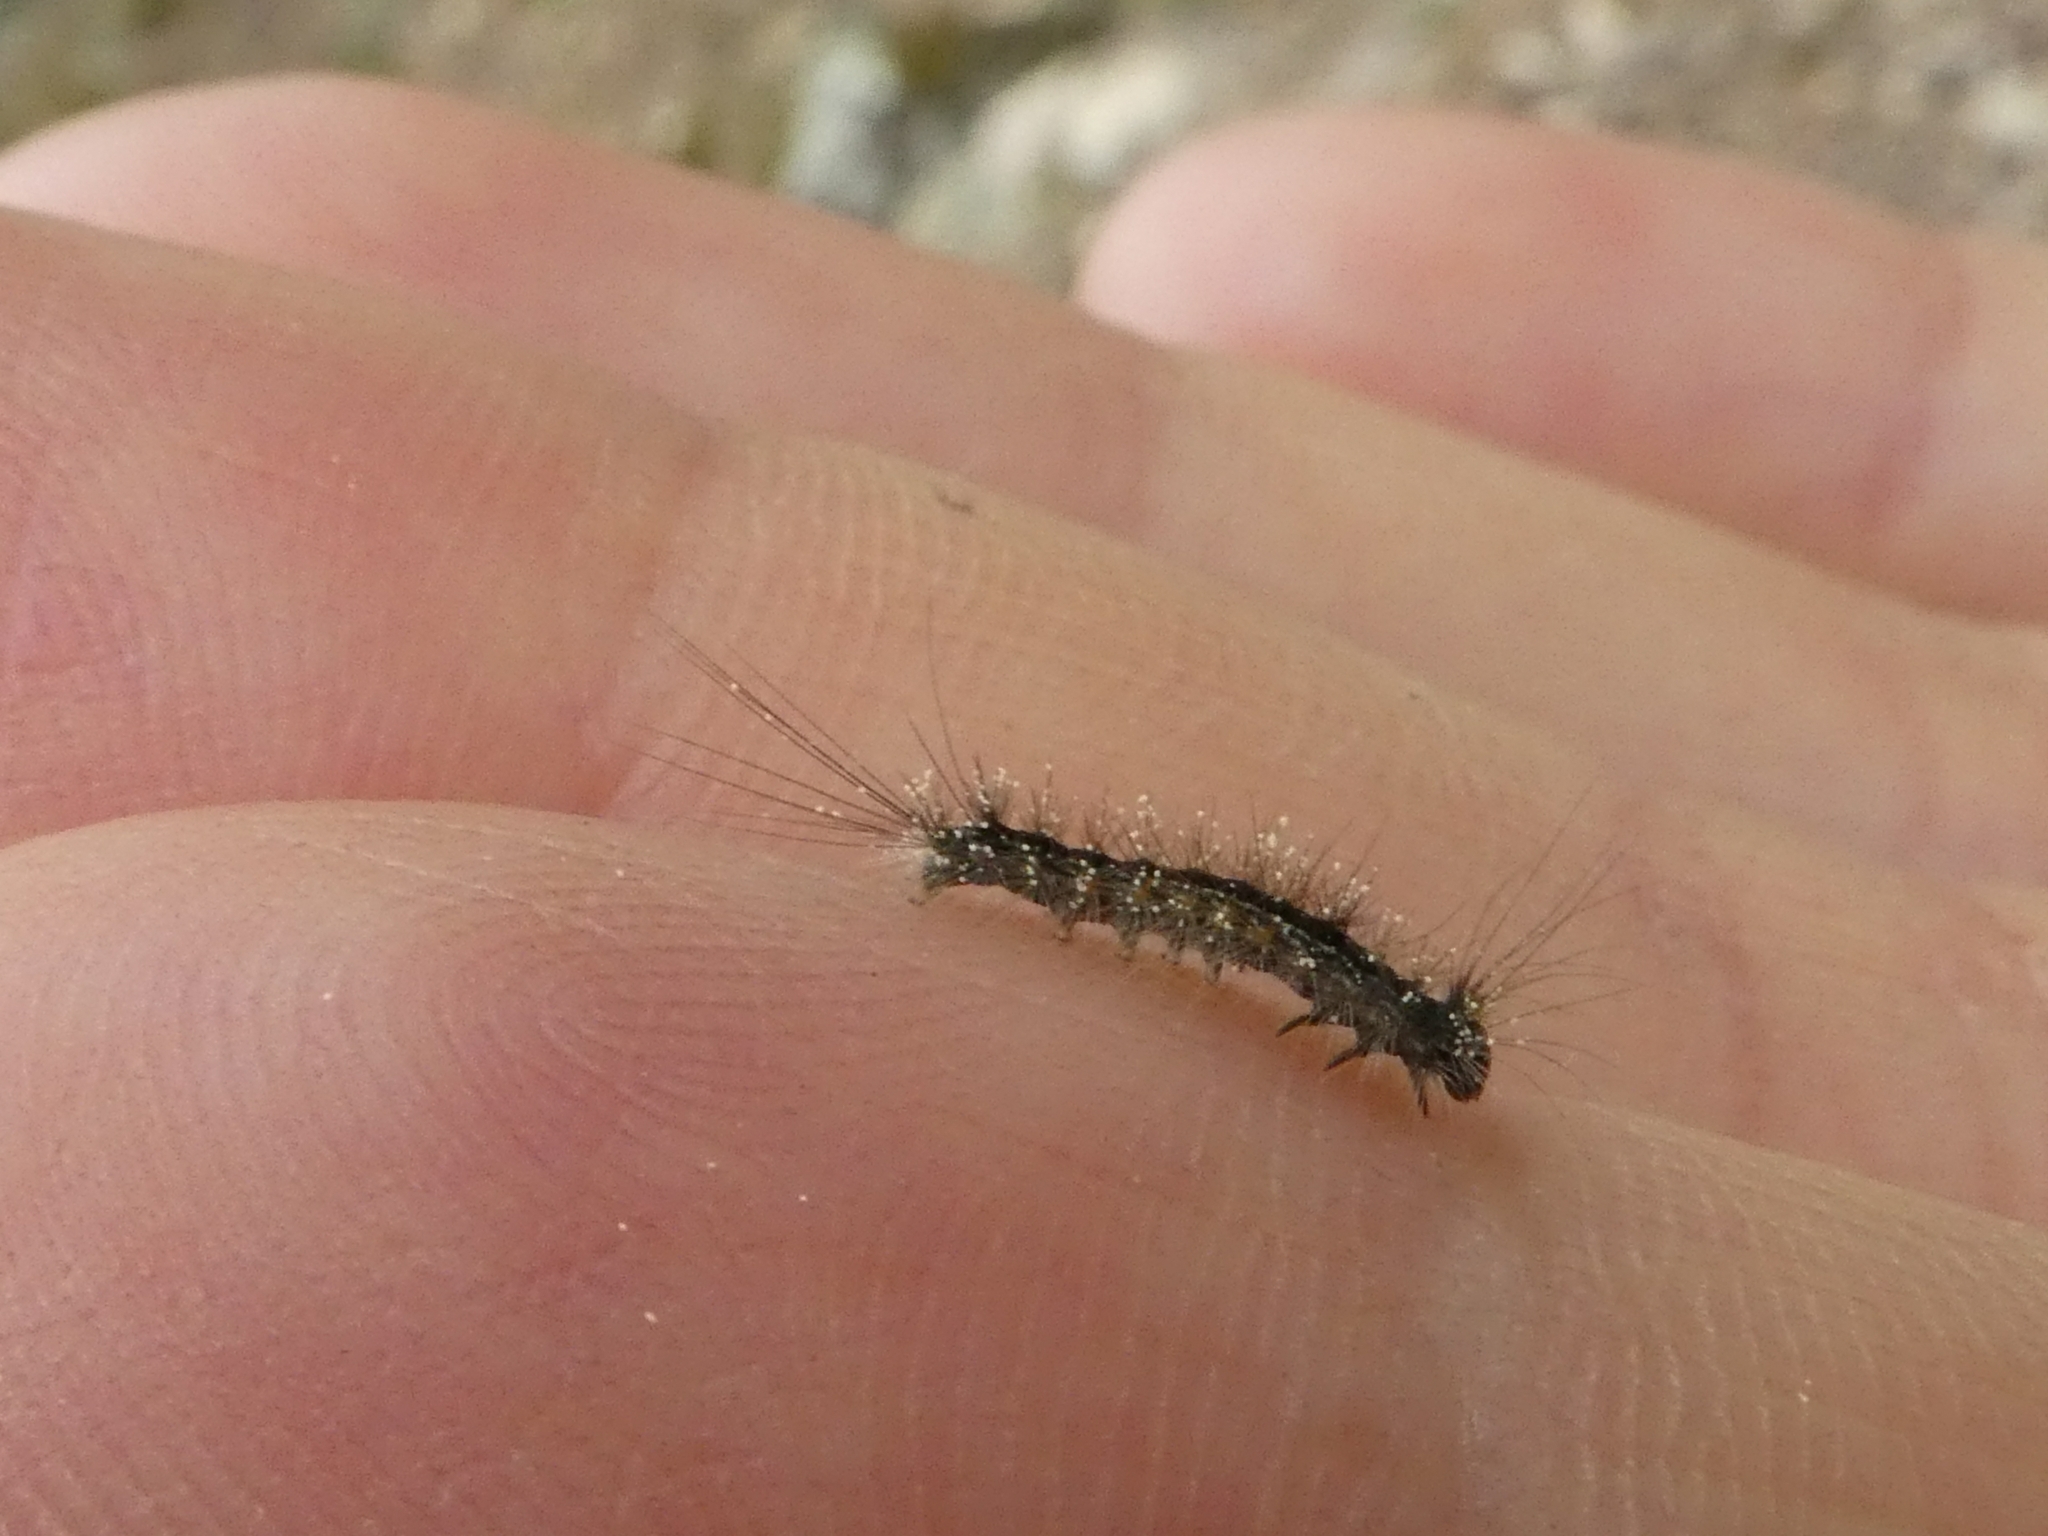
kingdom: Animalia
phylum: Arthropoda
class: Insecta
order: Lepidoptera
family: Erebidae
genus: Lymantria
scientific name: Lymantria dispar
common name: Gypsy moth
